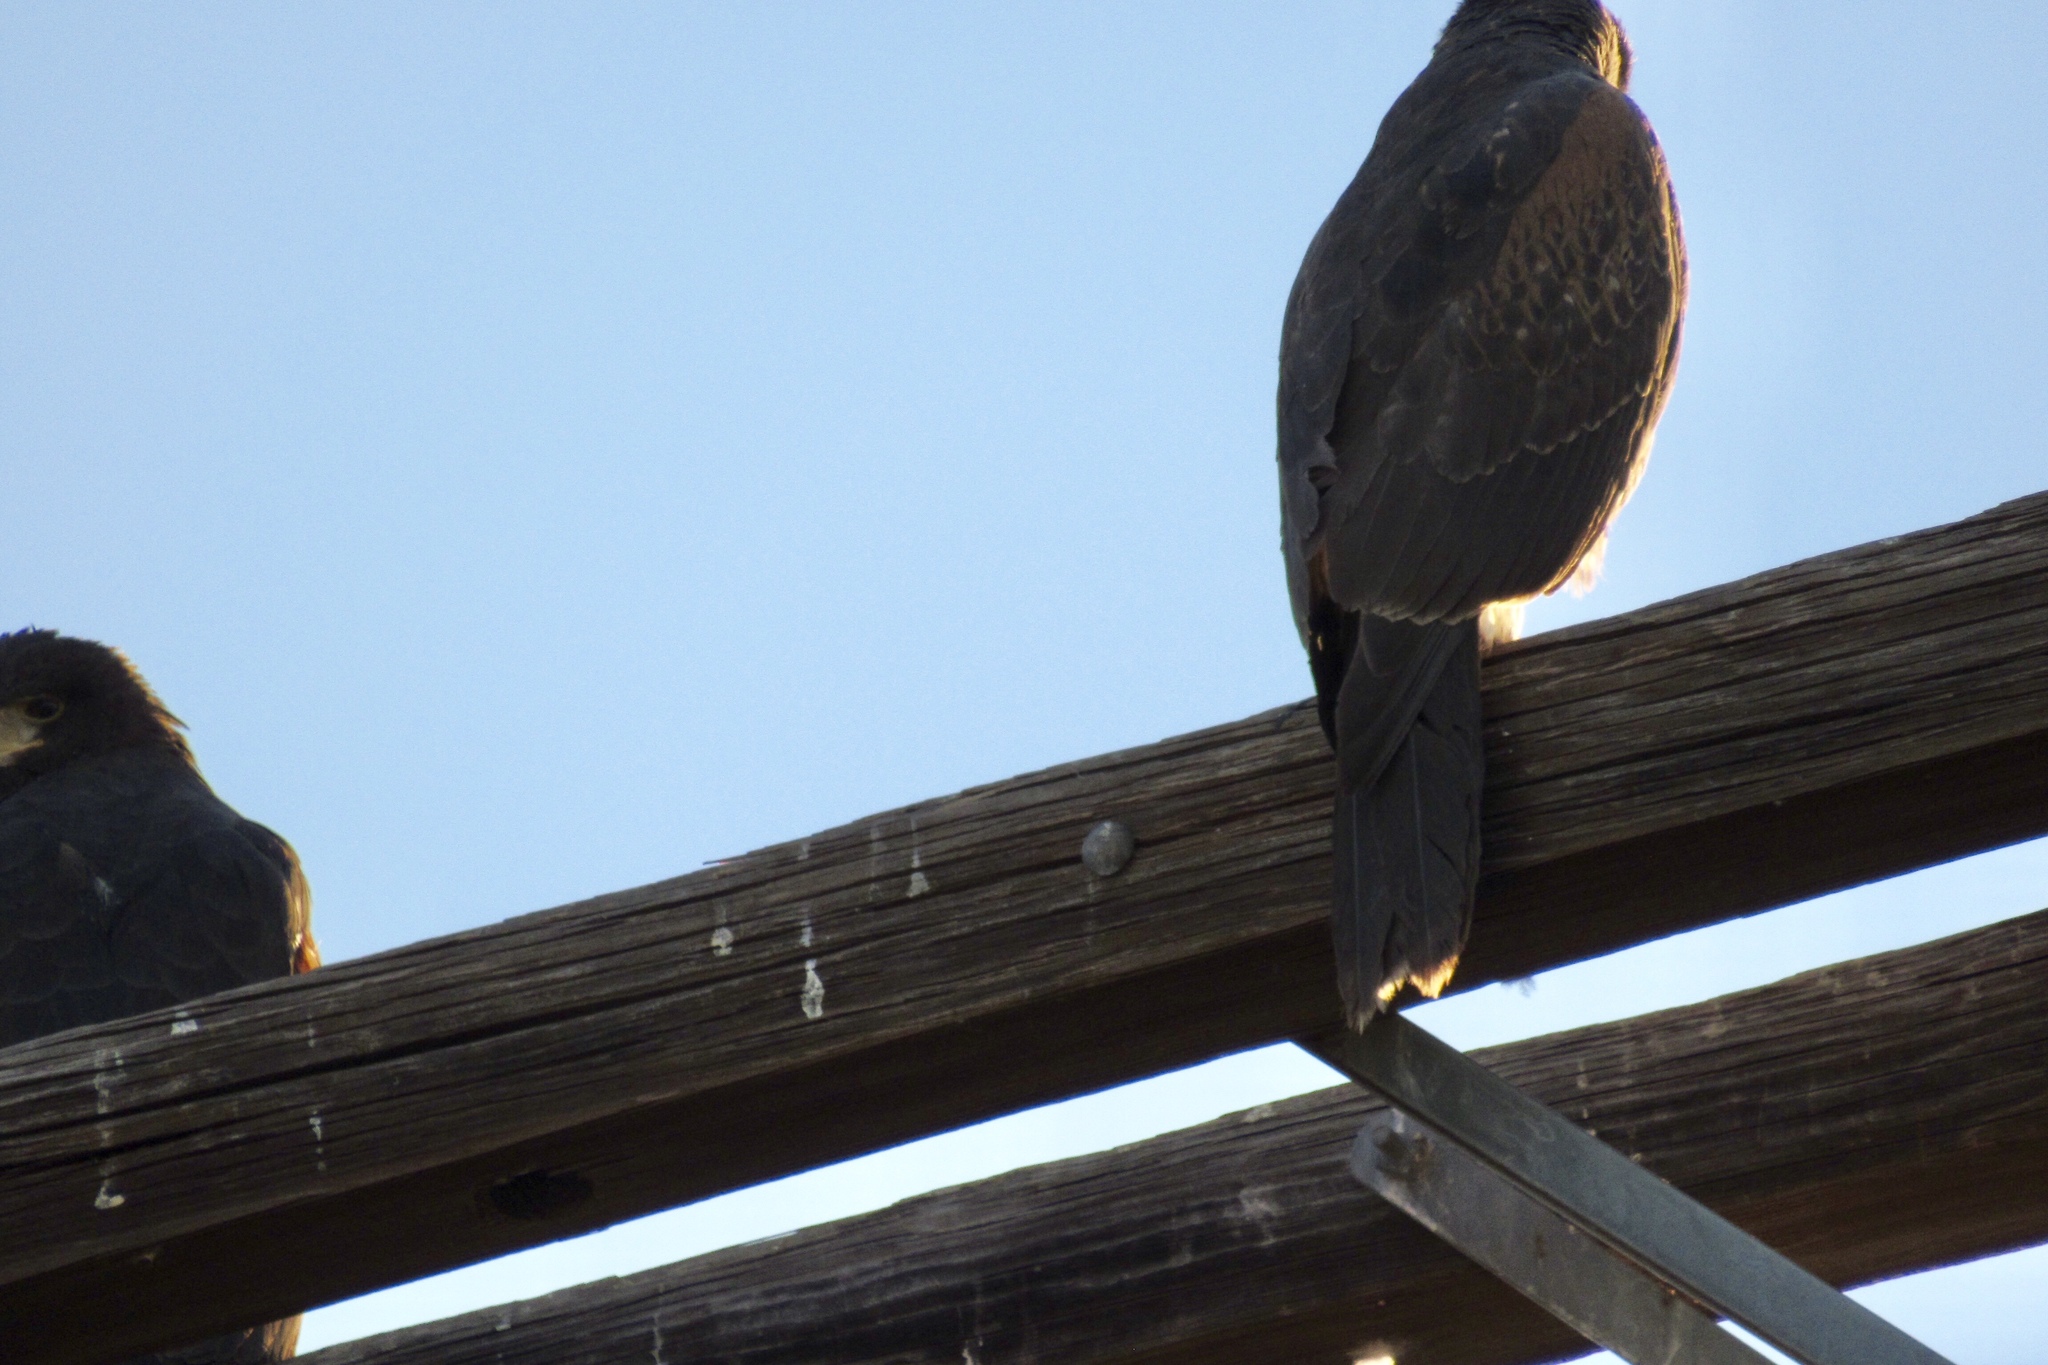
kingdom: Animalia
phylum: Chordata
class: Aves
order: Accipitriformes
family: Accipitridae
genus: Parabuteo
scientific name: Parabuteo unicinctus
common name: Harris's hawk
